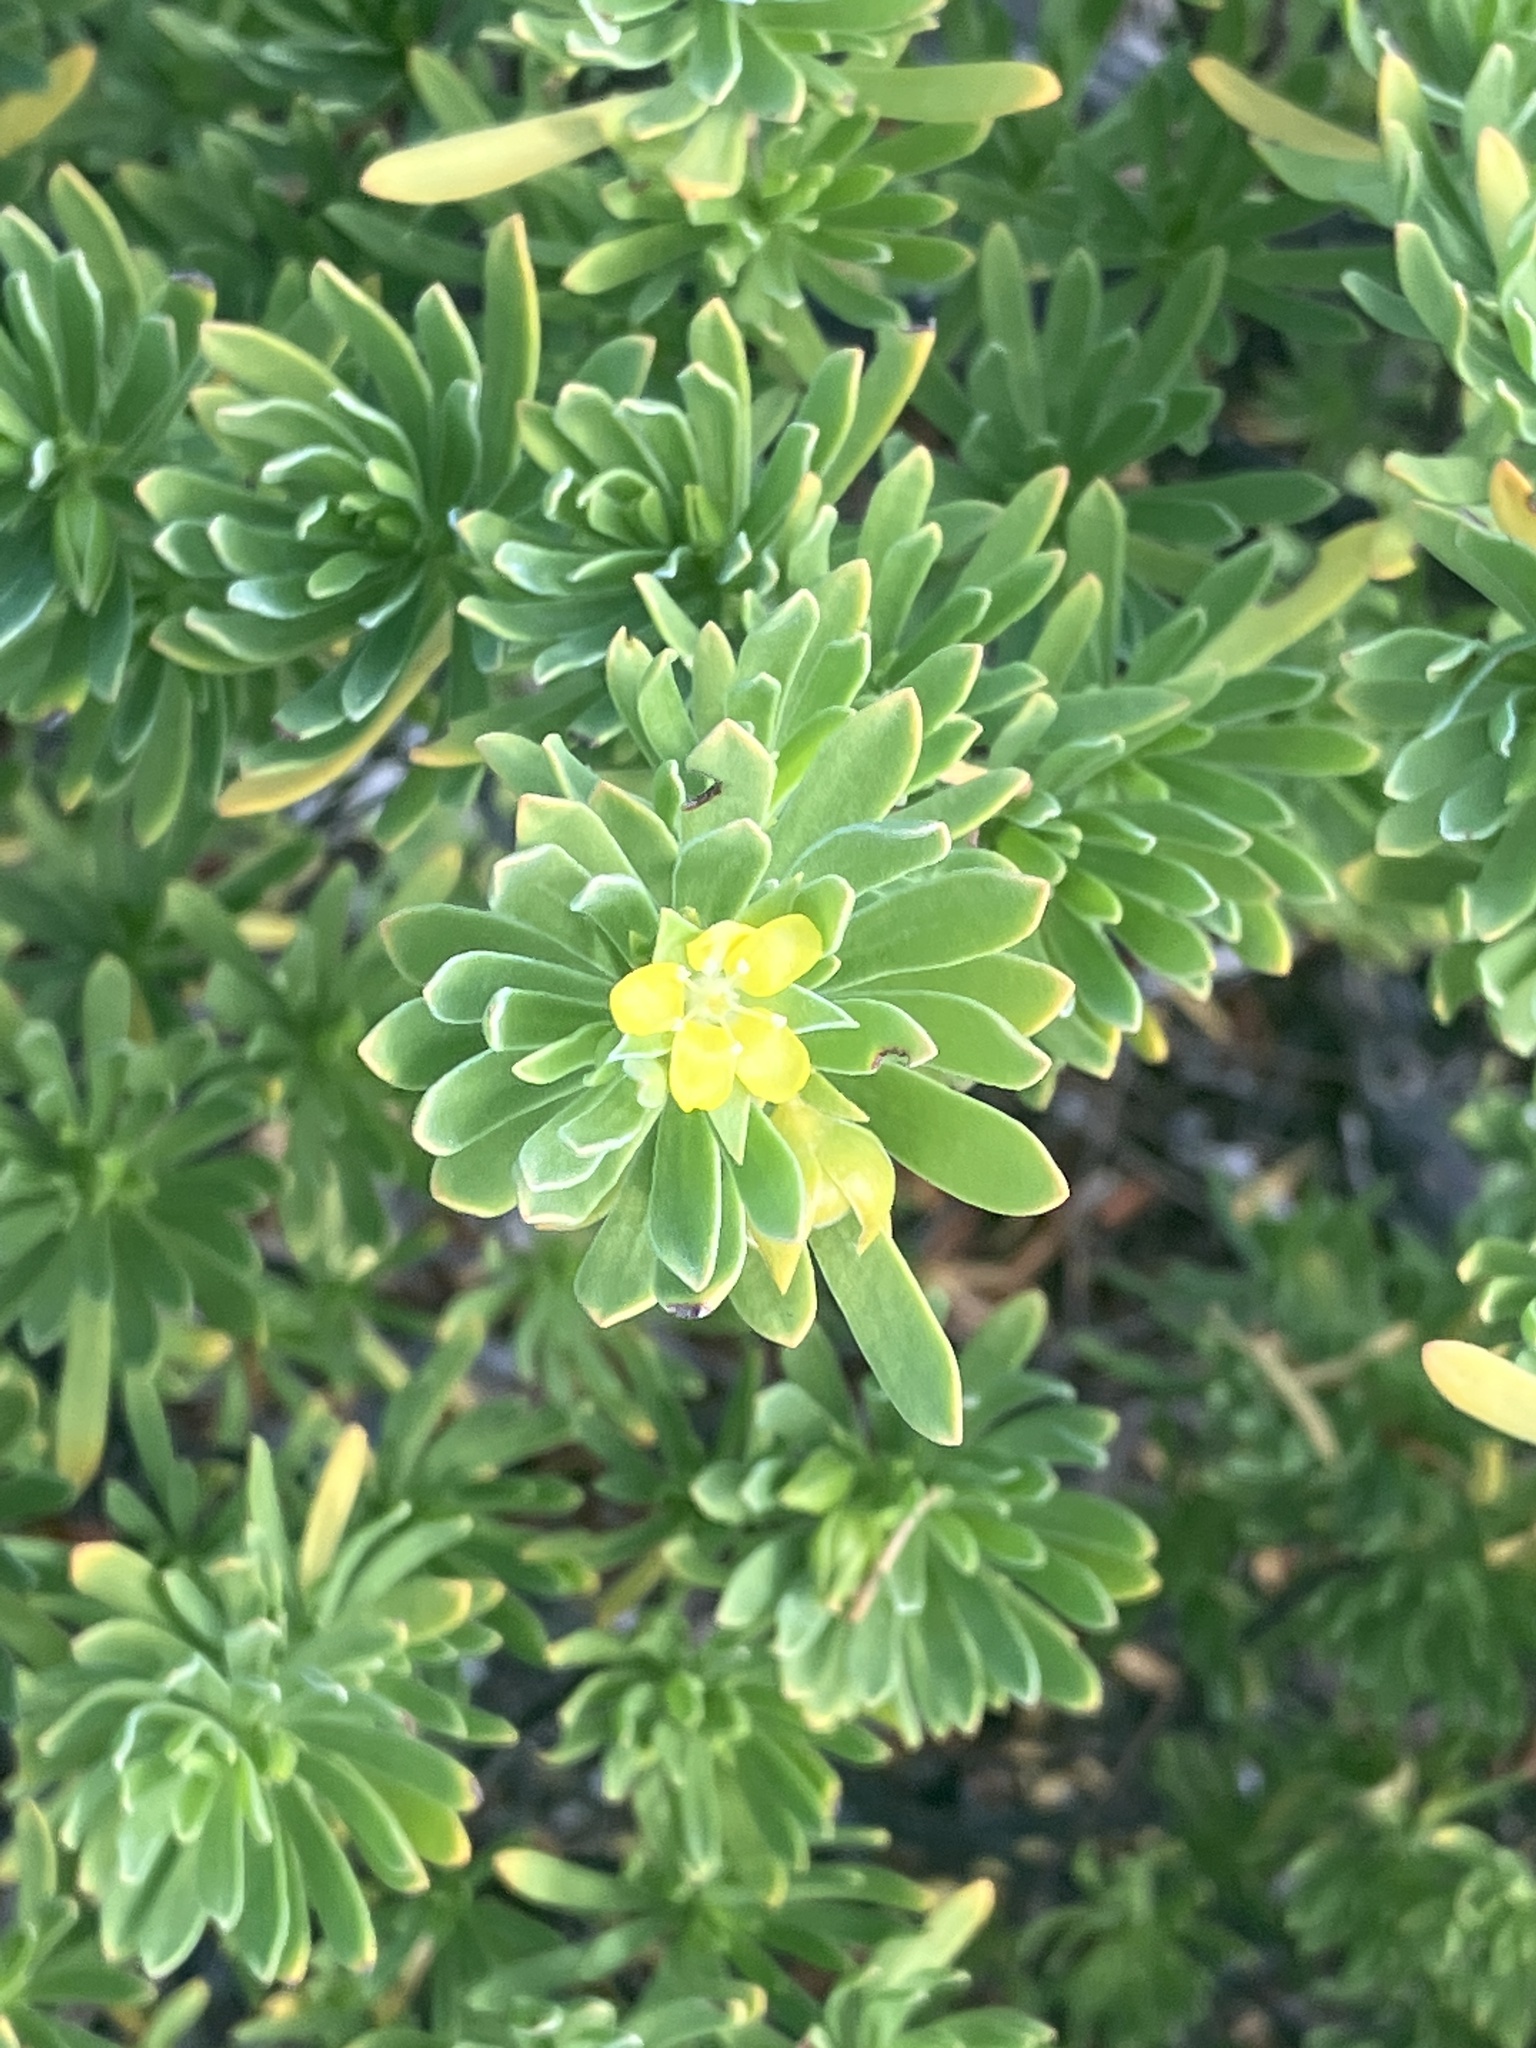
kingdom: Plantae
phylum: Tracheophyta
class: Magnoliopsida
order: Fabales
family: Surianaceae
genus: Suriana
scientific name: Suriana maritima
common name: Bay-cedar
